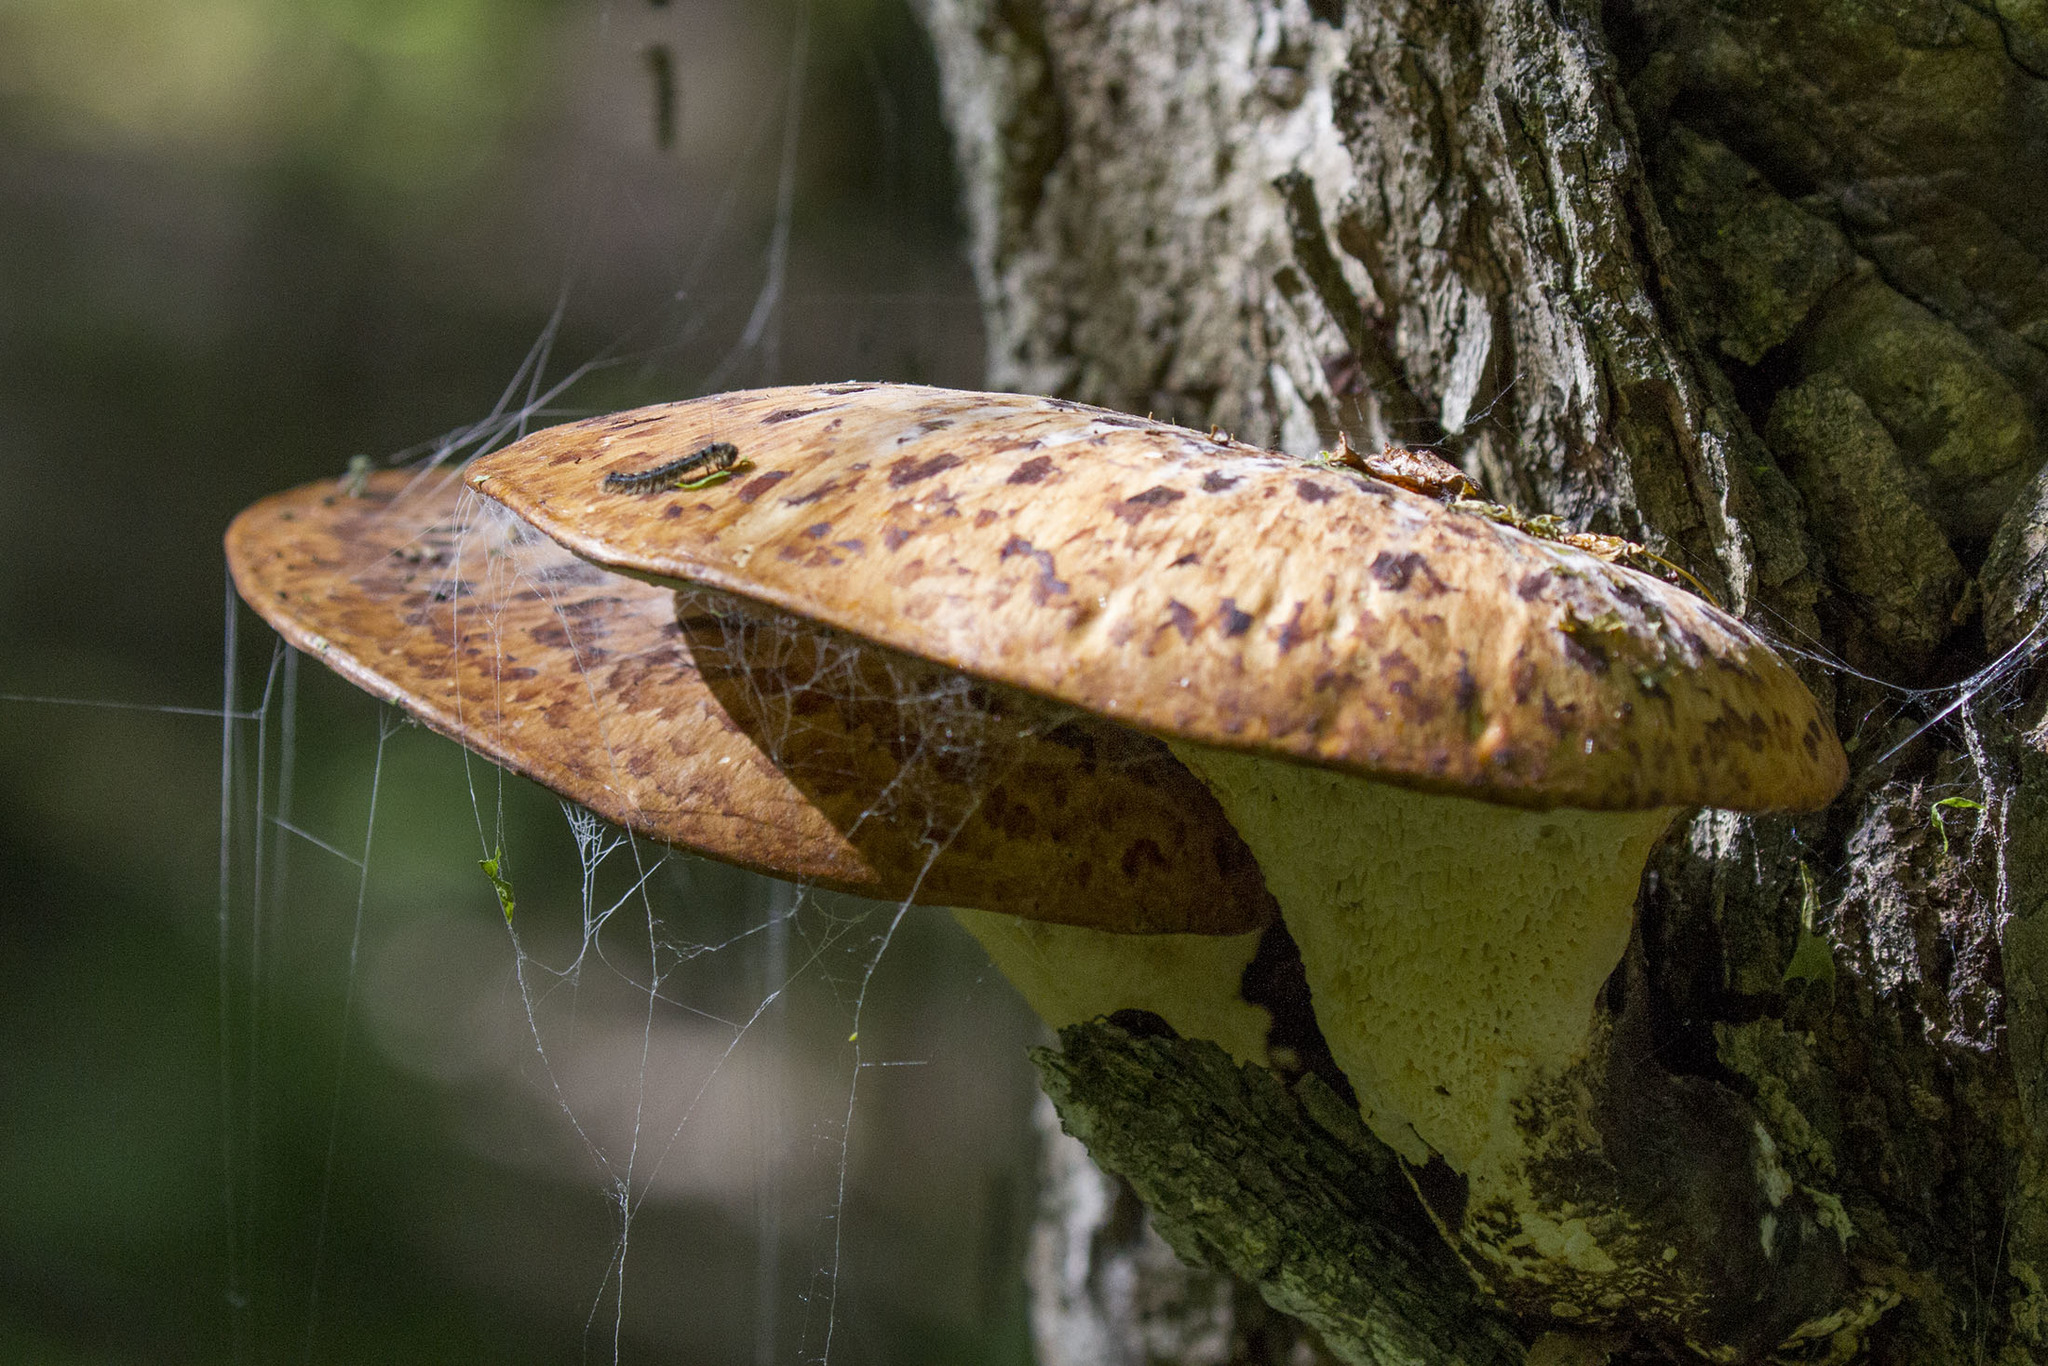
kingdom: Fungi
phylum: Basidiomycota
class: Agaricomycetes
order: Polyporales
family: Polyporaceae
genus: Cerioporus
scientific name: Cerioporus squamosus
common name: Dryad's saddle
